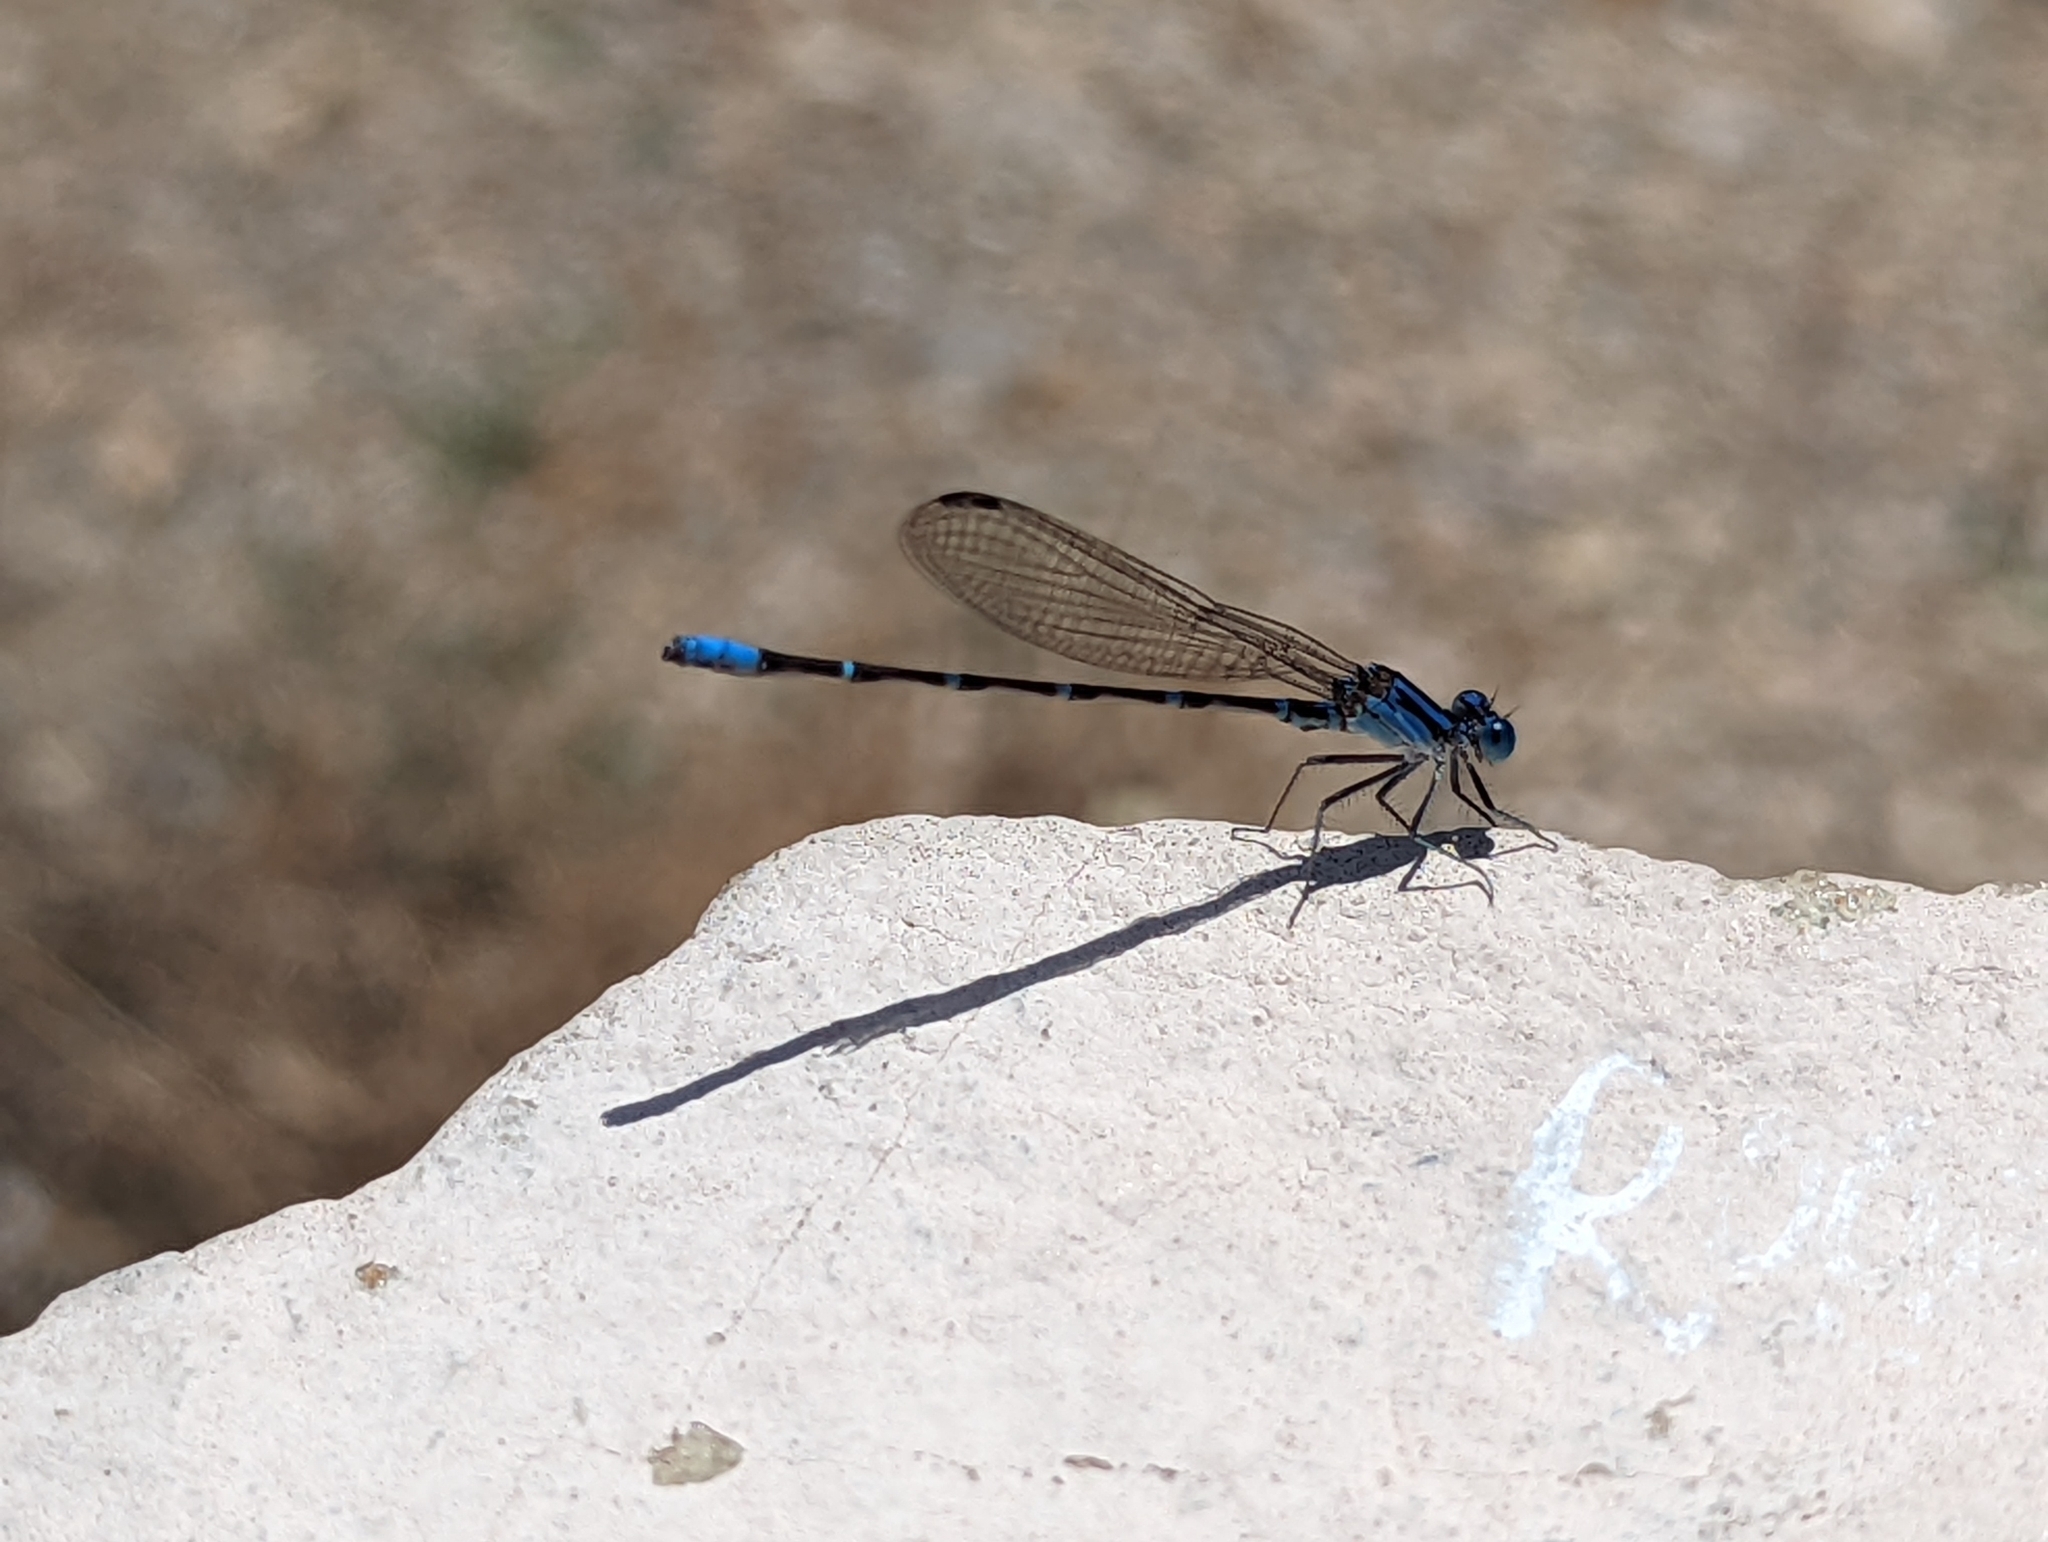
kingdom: Animalia
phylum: Arthropoda
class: Insecta
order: Odonata
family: Coenagrionidae
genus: Argia
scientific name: Argia sedula
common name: Blue-ringed dancer
